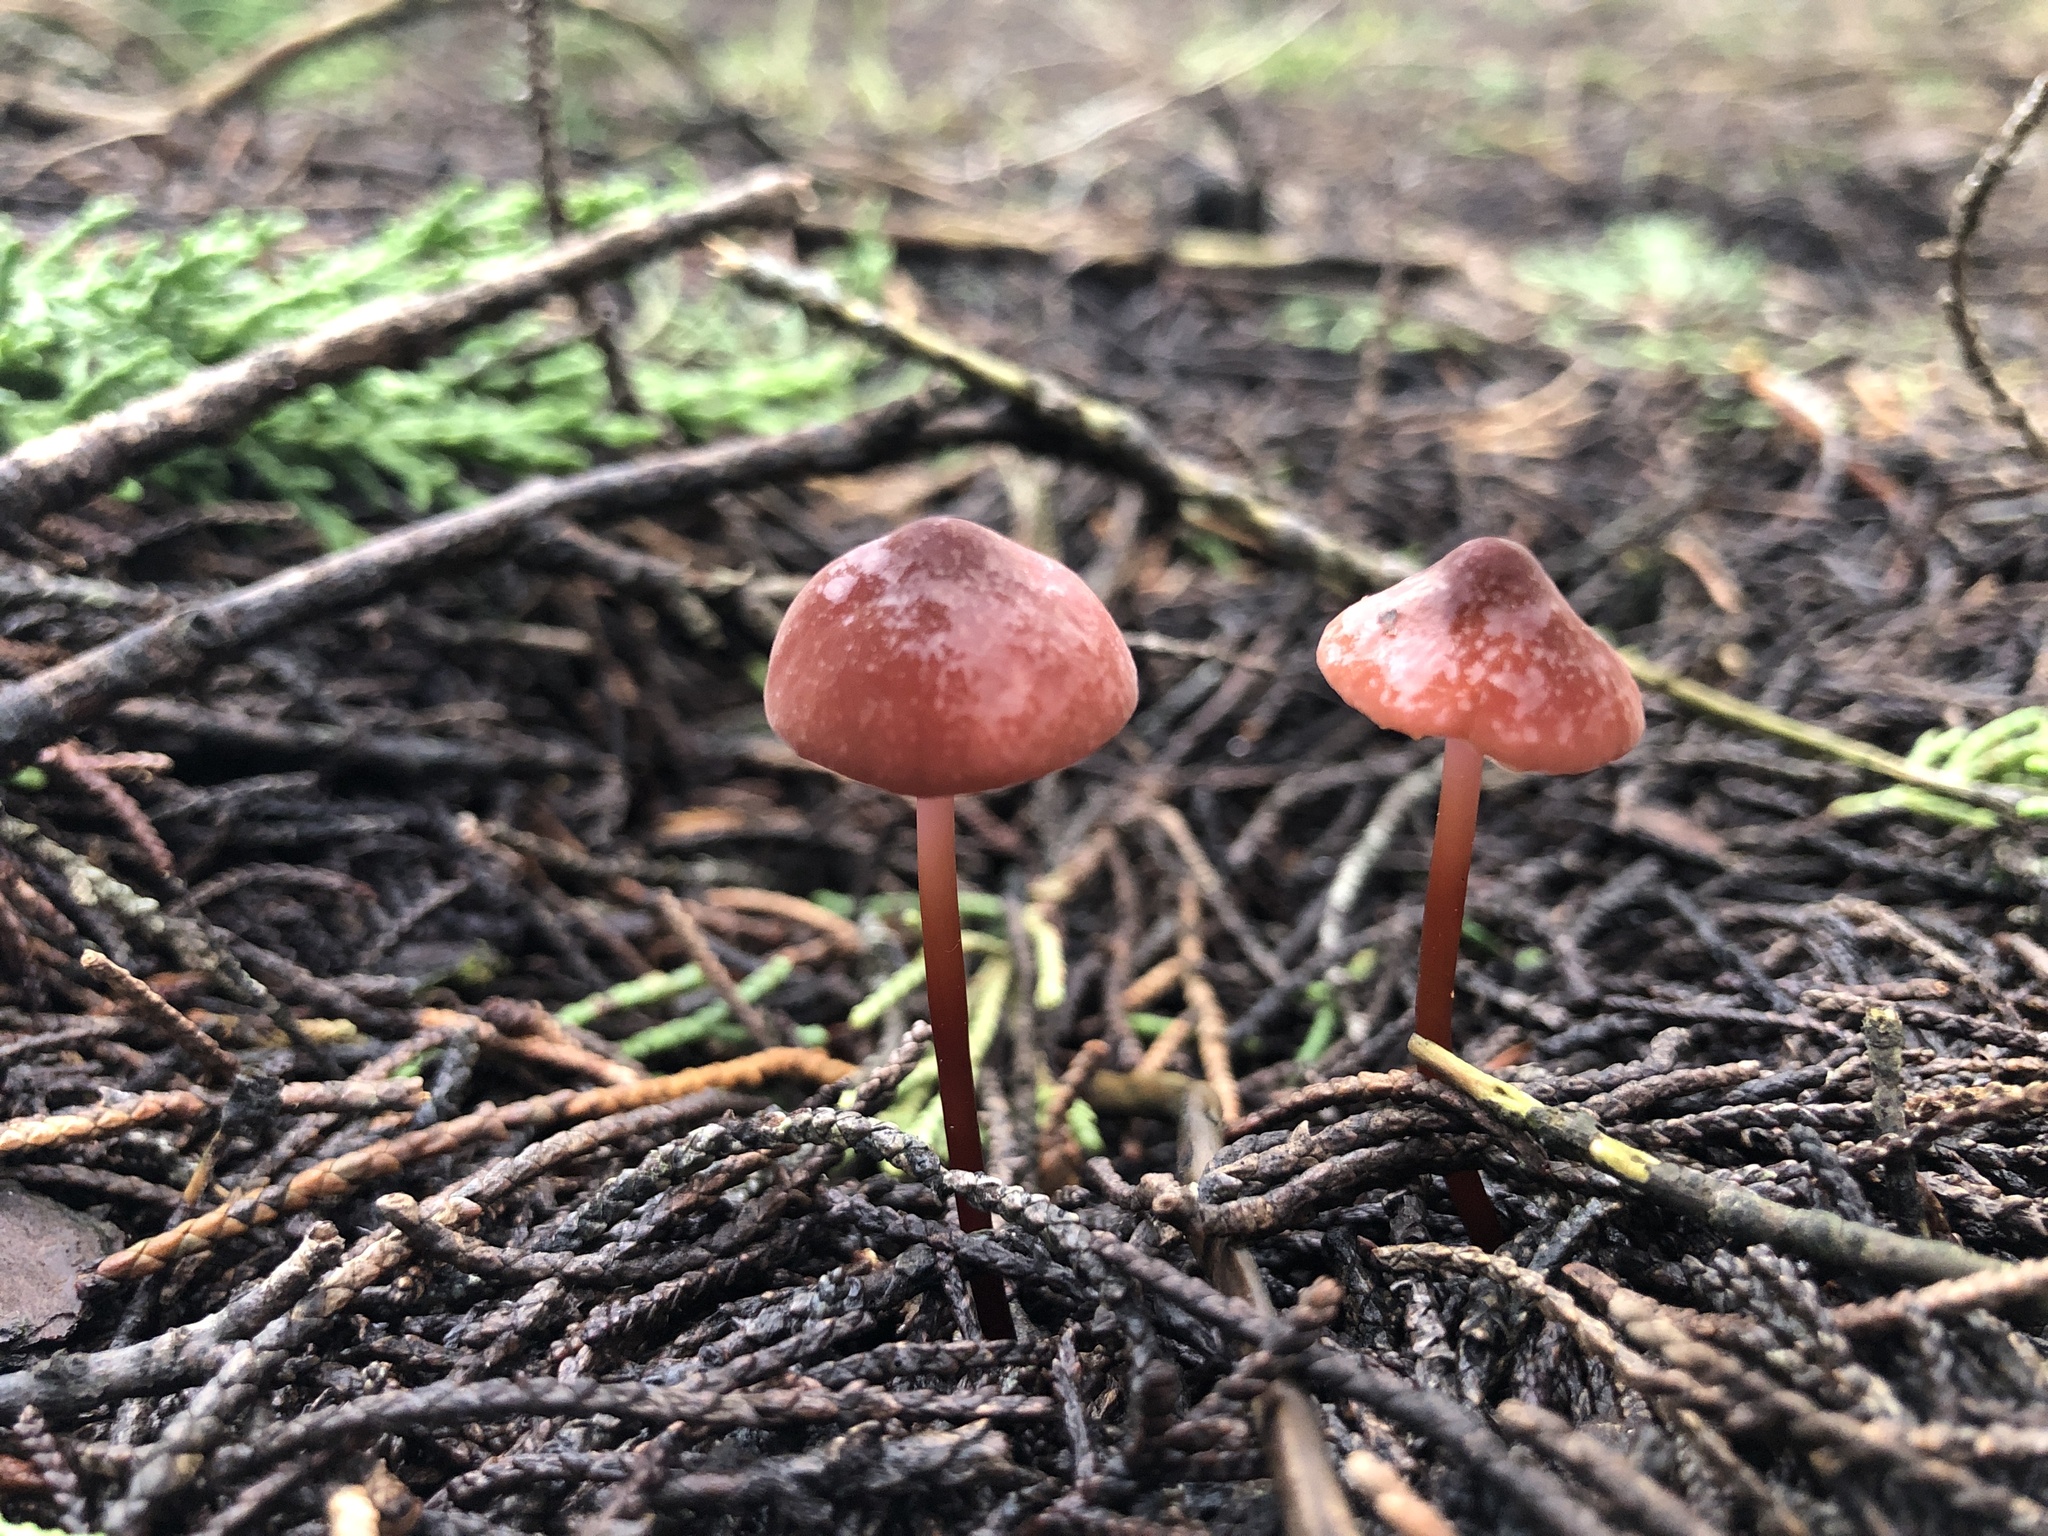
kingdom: Fungi
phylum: Basidiomycota
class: Agaricomycetes
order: Agaricales
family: Marasmiaceae
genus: Marasmius
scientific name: Marasmius plicatulus
